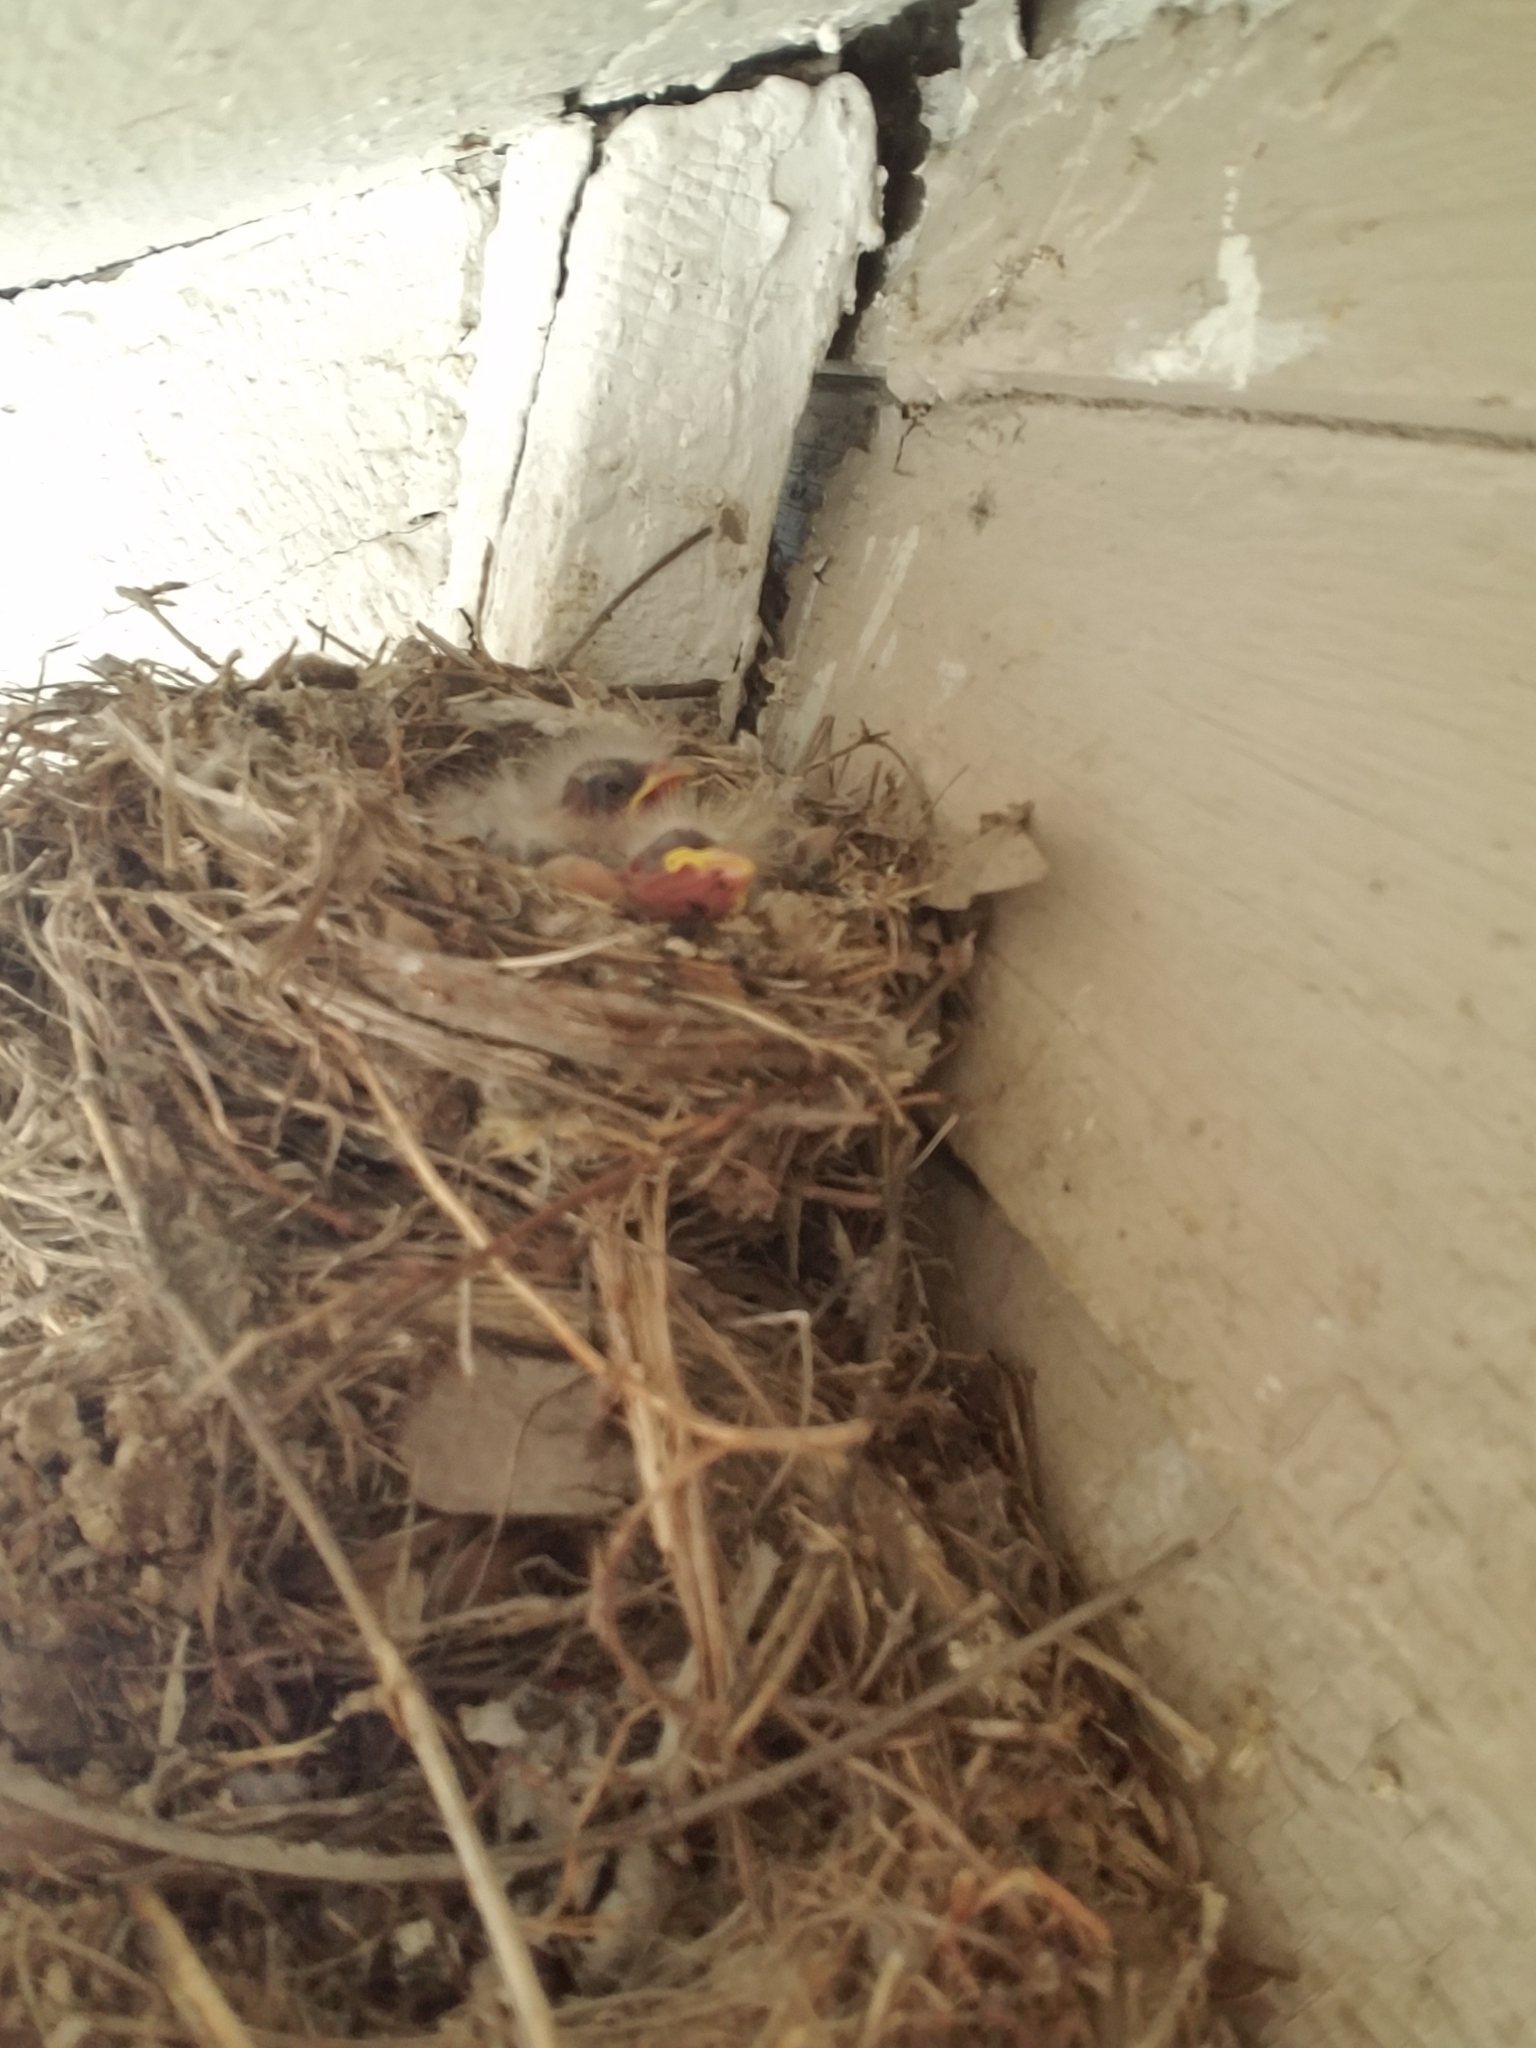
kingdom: Animalia
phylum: Chordata
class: Aves
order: Passeriformes
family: Fringillidae
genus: Haemorhous
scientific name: Haemorhous mexicanus
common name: House finch
